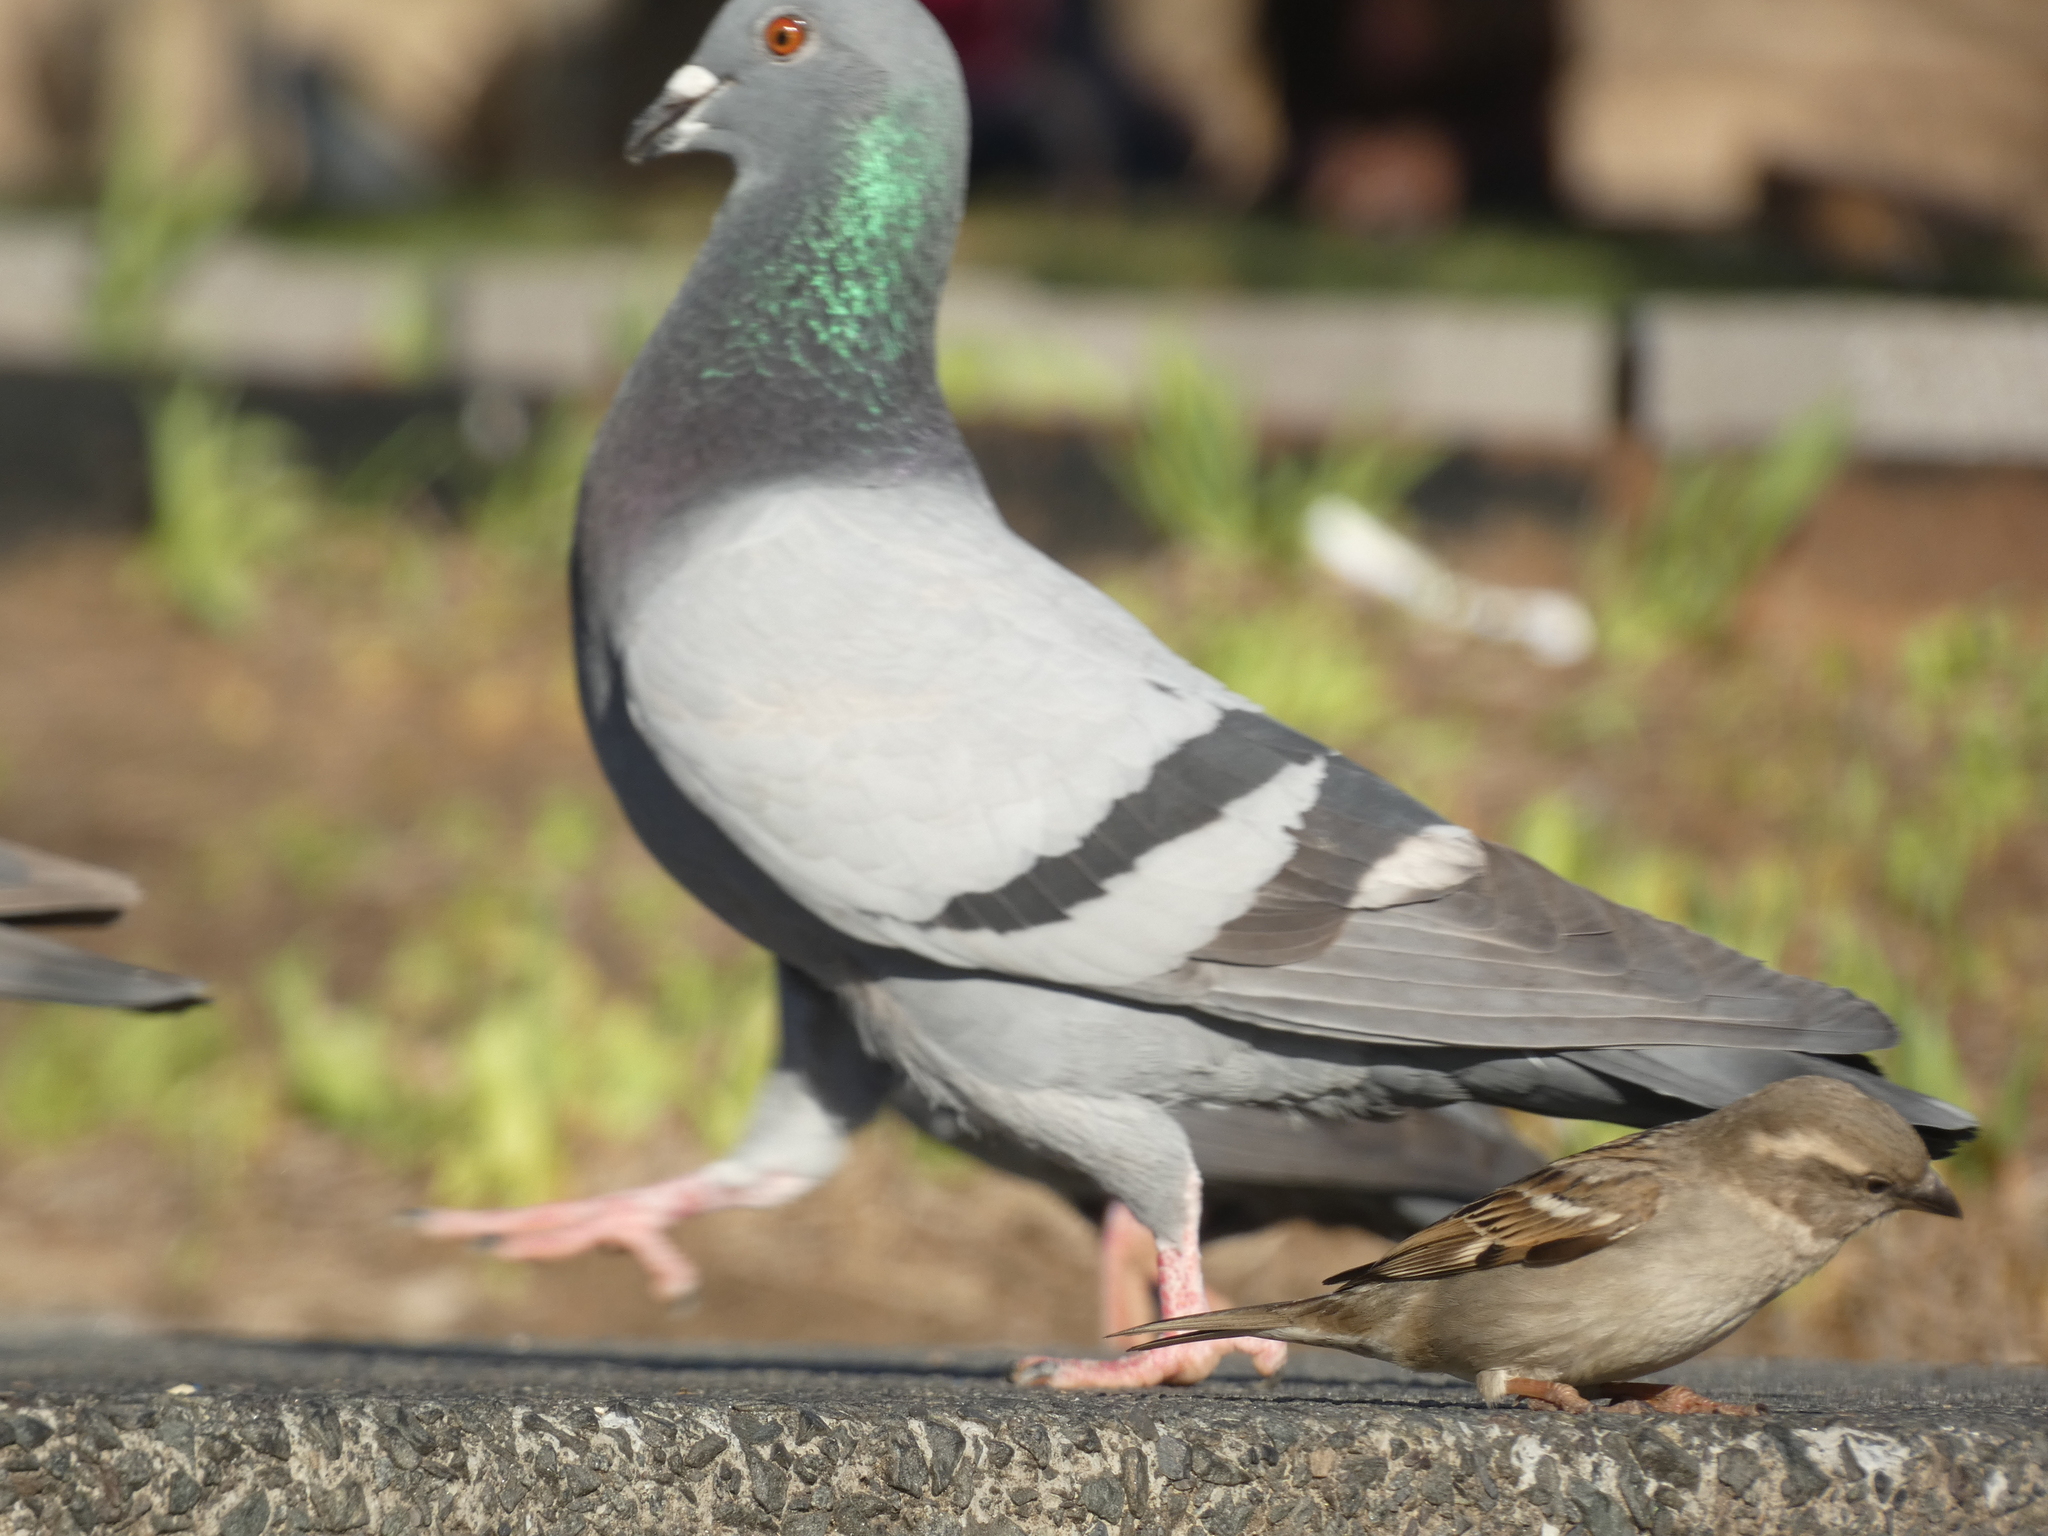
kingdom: Animalia
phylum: Chordata
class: Aves
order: Columbiformes
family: Columbidae
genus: Columba
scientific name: Columba livia
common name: Rock pigeon
